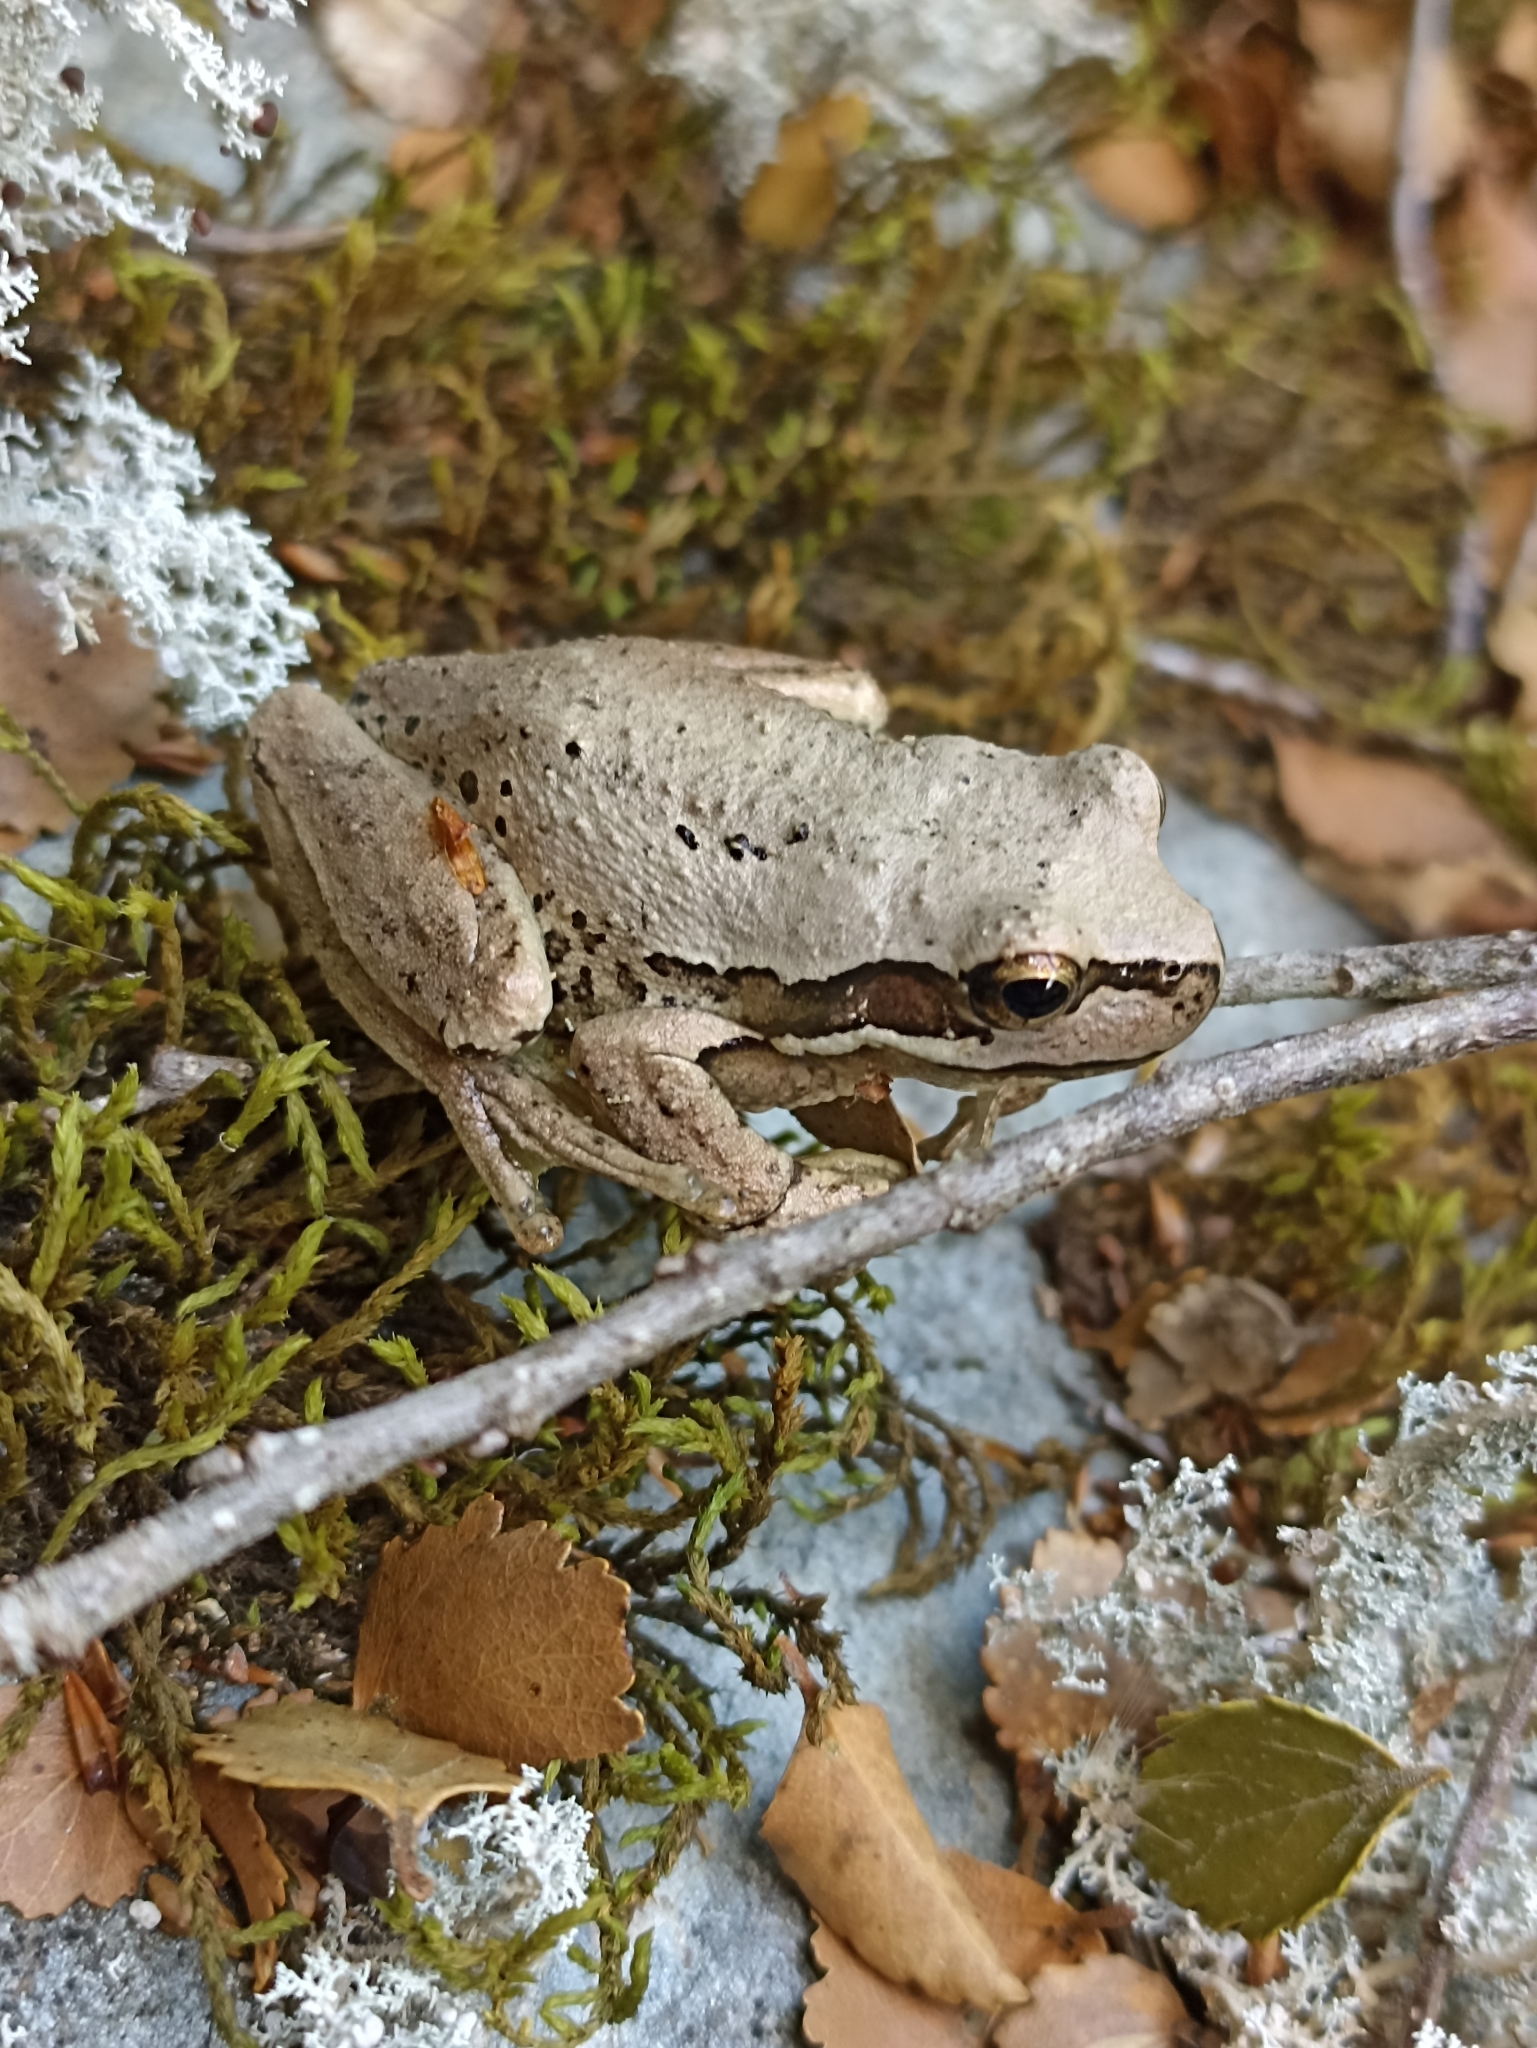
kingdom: Animalia
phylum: Chordata
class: Amphibia
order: Anura
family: Pelodryadidae
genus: Litoria
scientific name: Litoria ewingii
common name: Southern brown tree frog
